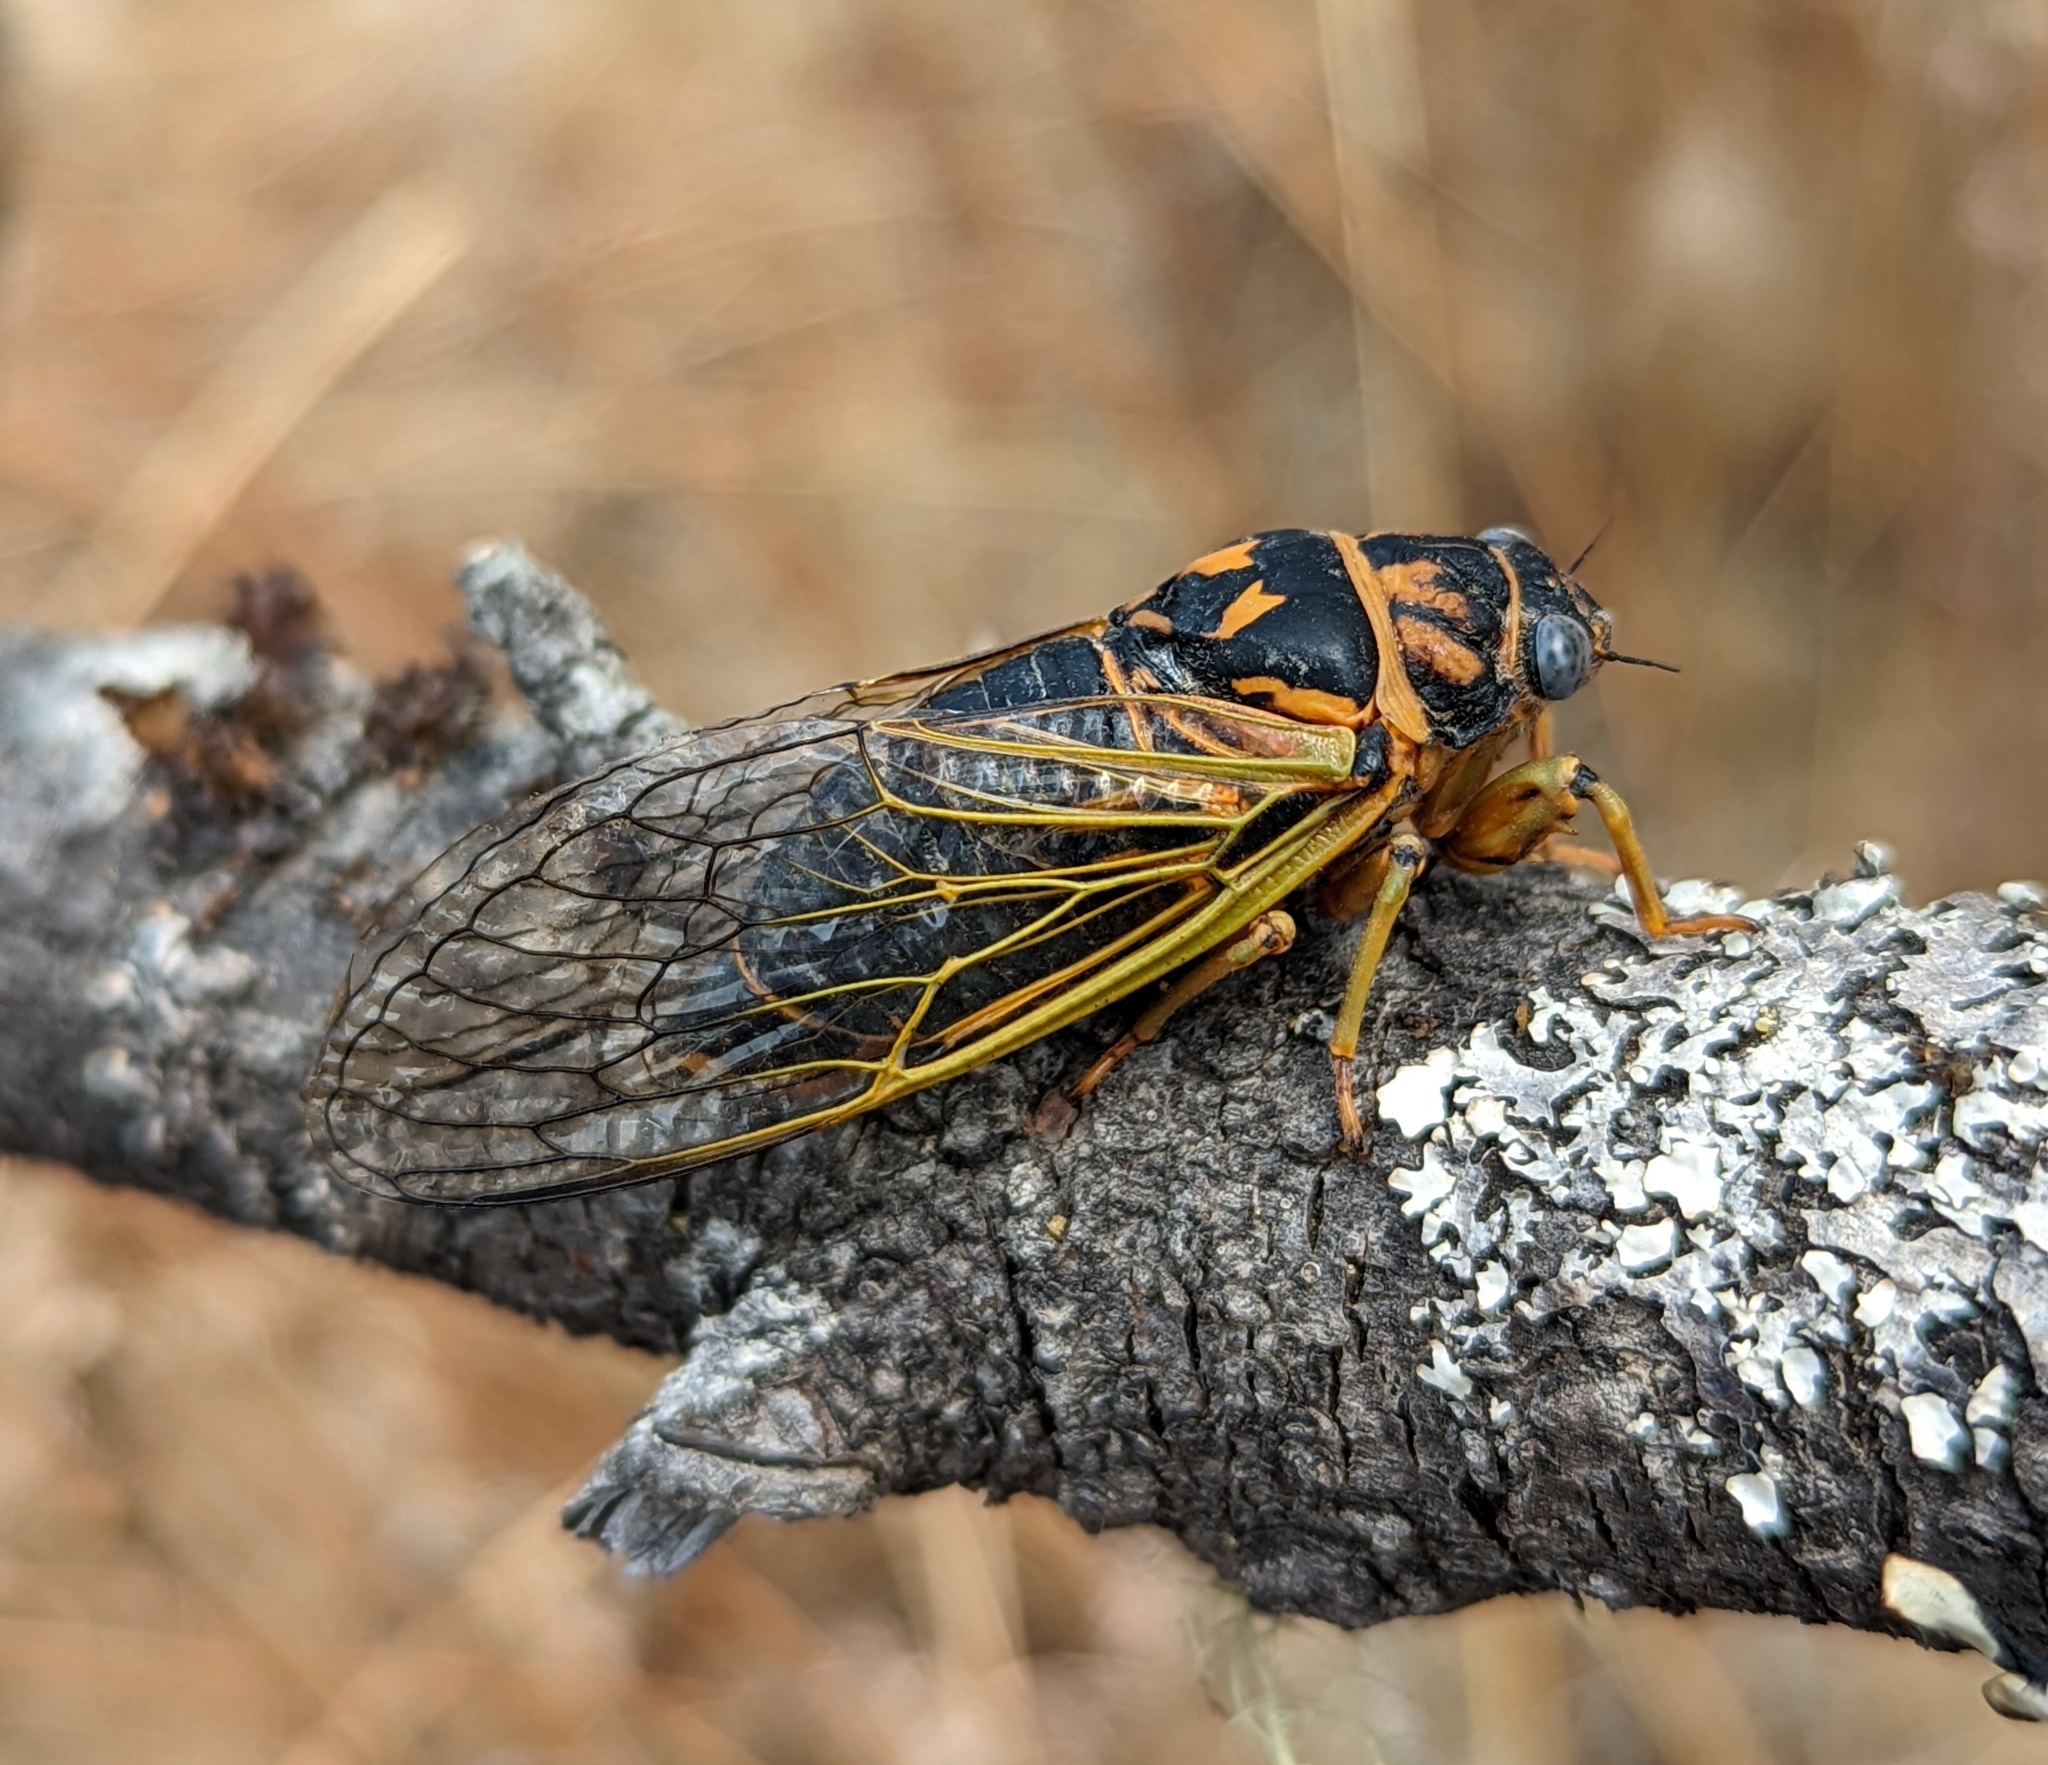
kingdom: Animalia
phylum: Arthropoda
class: Insecta
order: Hemiptera
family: Cicadidae
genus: Okanagana
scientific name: Okanagana vandykei
